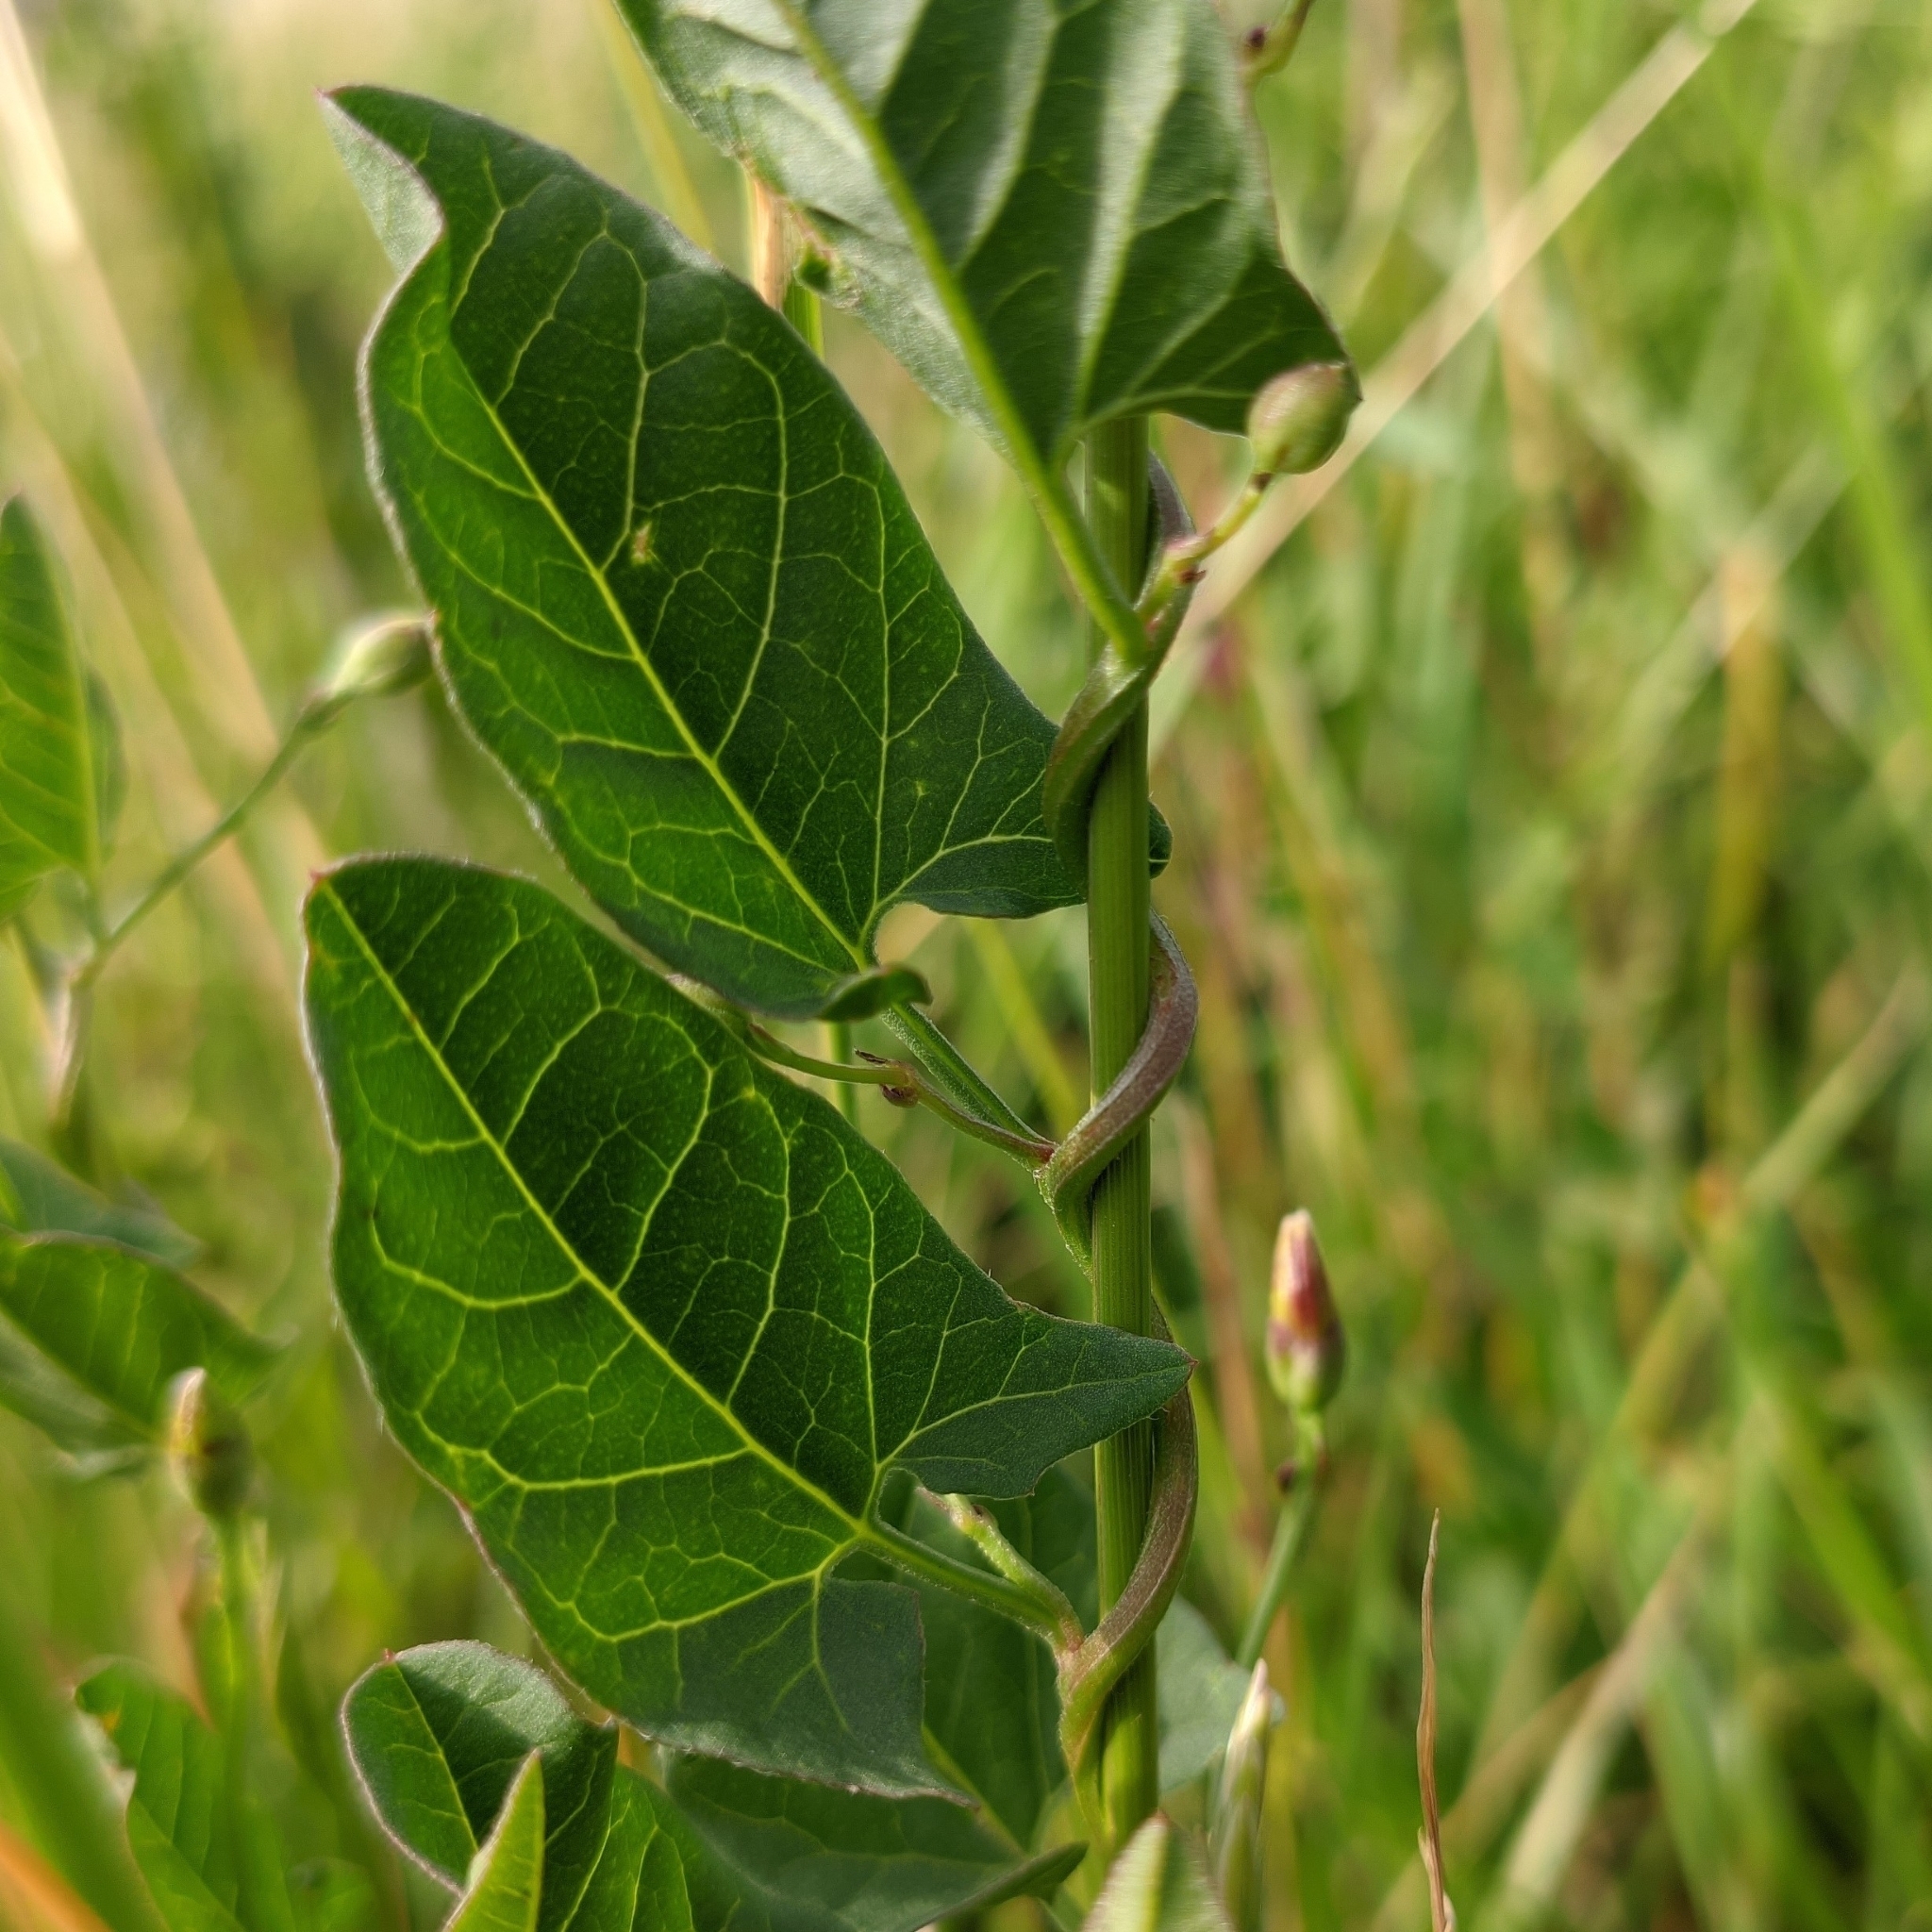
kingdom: Plantae
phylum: Tracheophyta
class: Magnoliopsida
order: Solanales
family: Convolvulaceae
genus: Convolvulus
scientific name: Convolvulus arvensis
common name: Field bindweed
